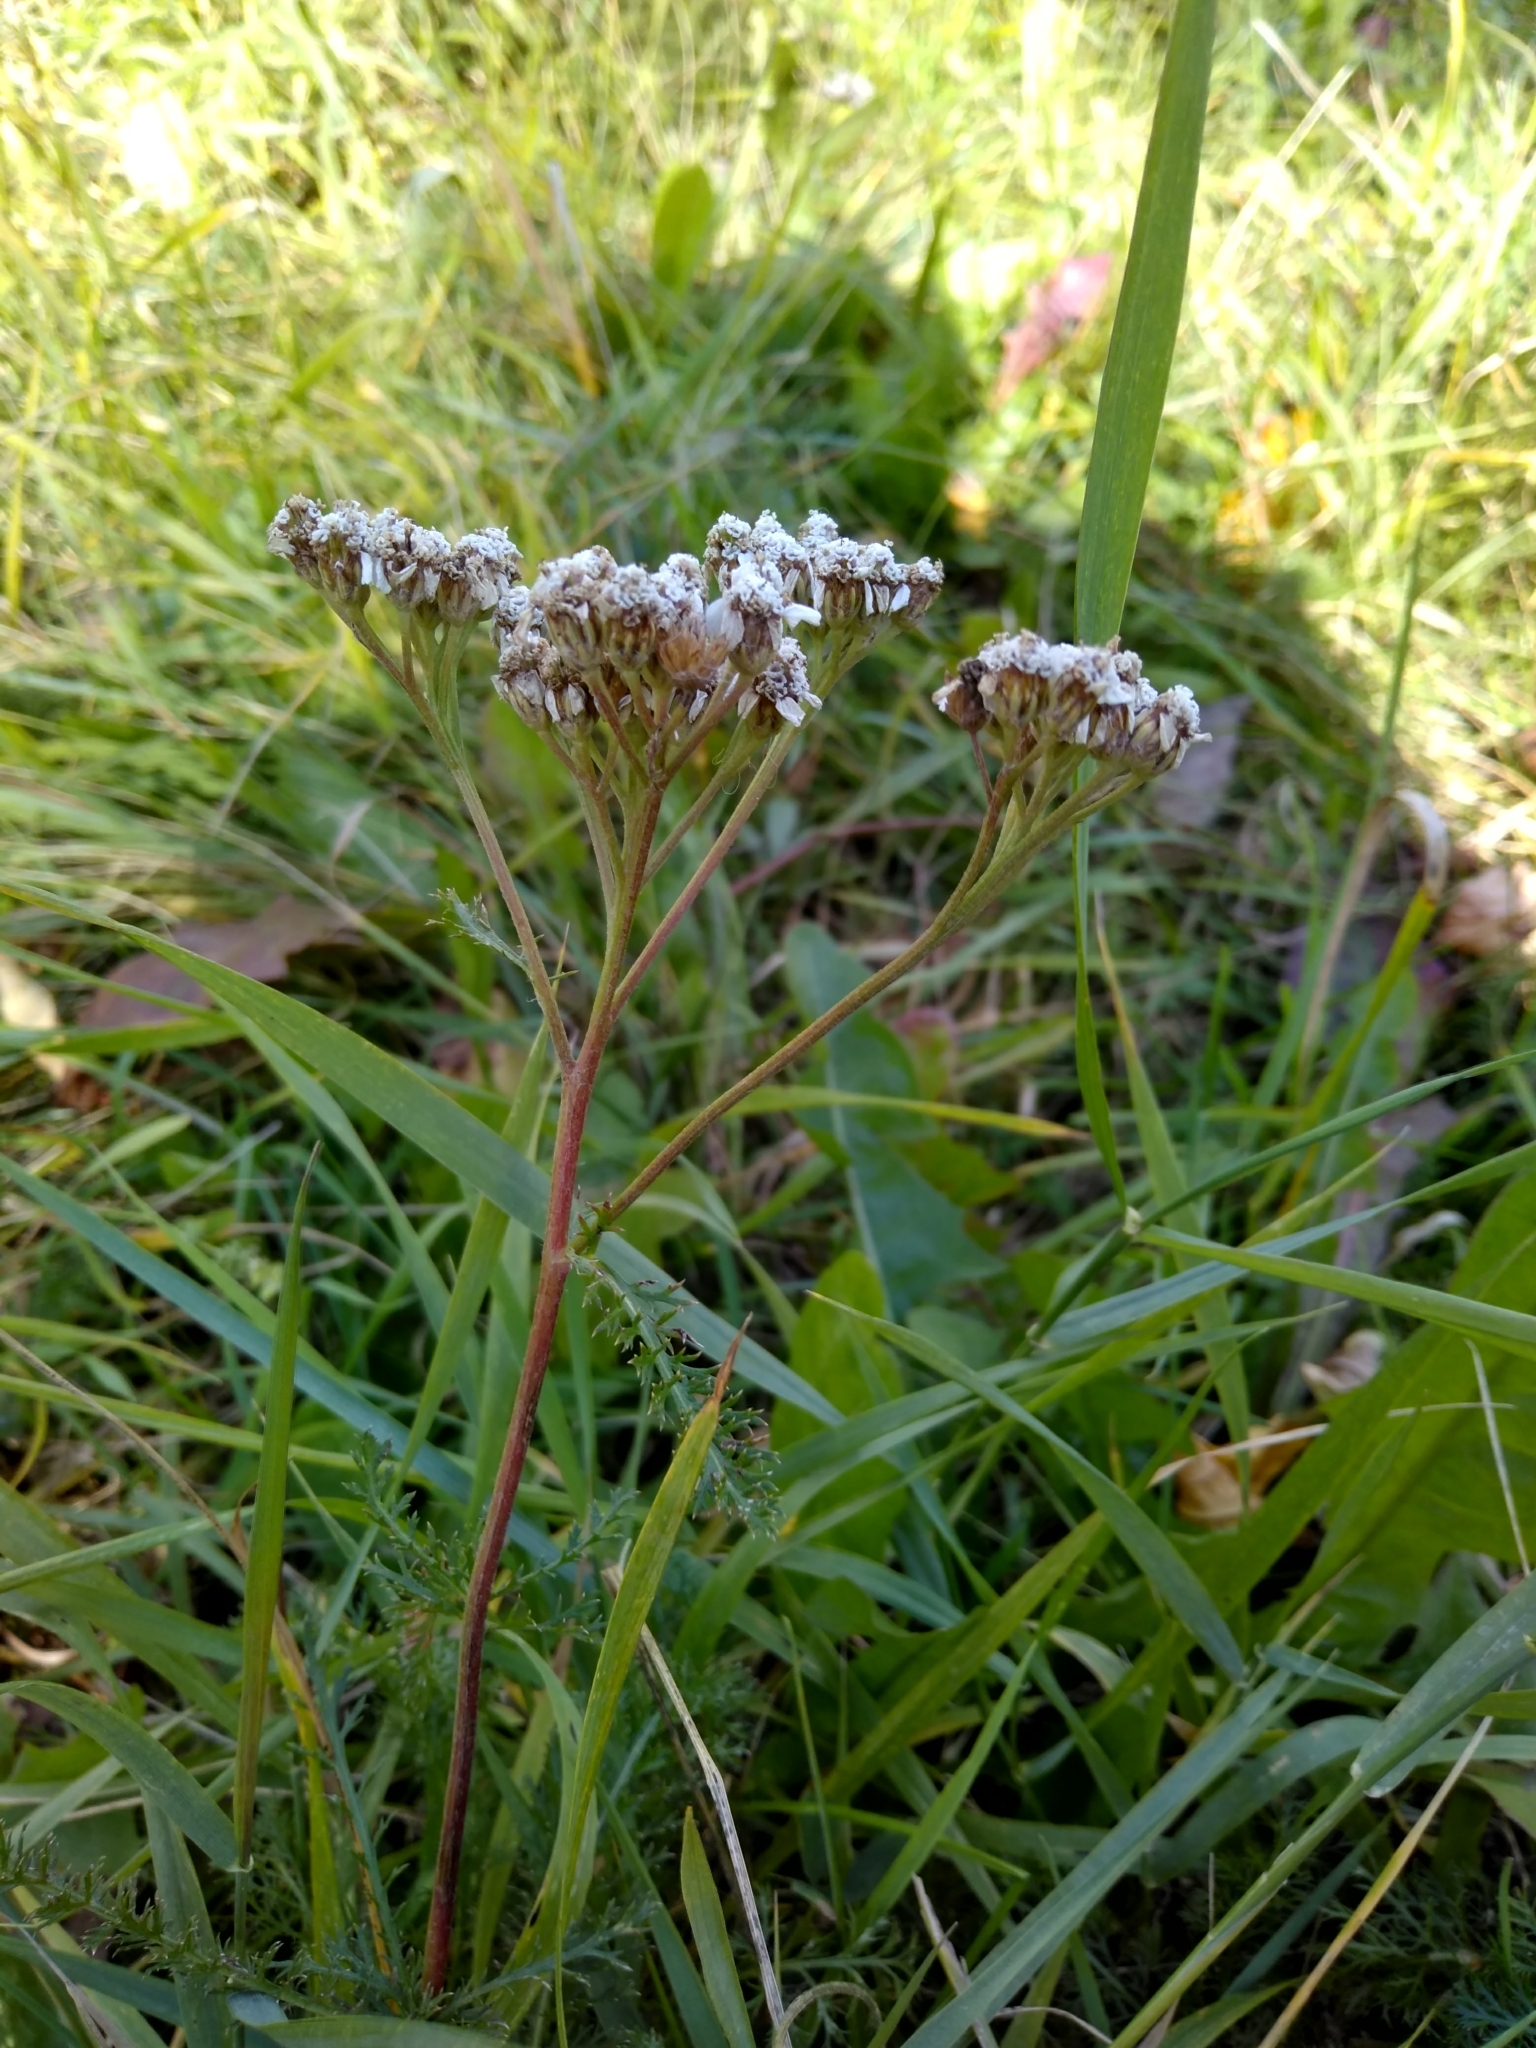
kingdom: Plantae
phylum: Tracheophyta
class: Magnoliopsida
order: Asterales
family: Asteraceae
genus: Achillea
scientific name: Achillea millefolium
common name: Yarrow
